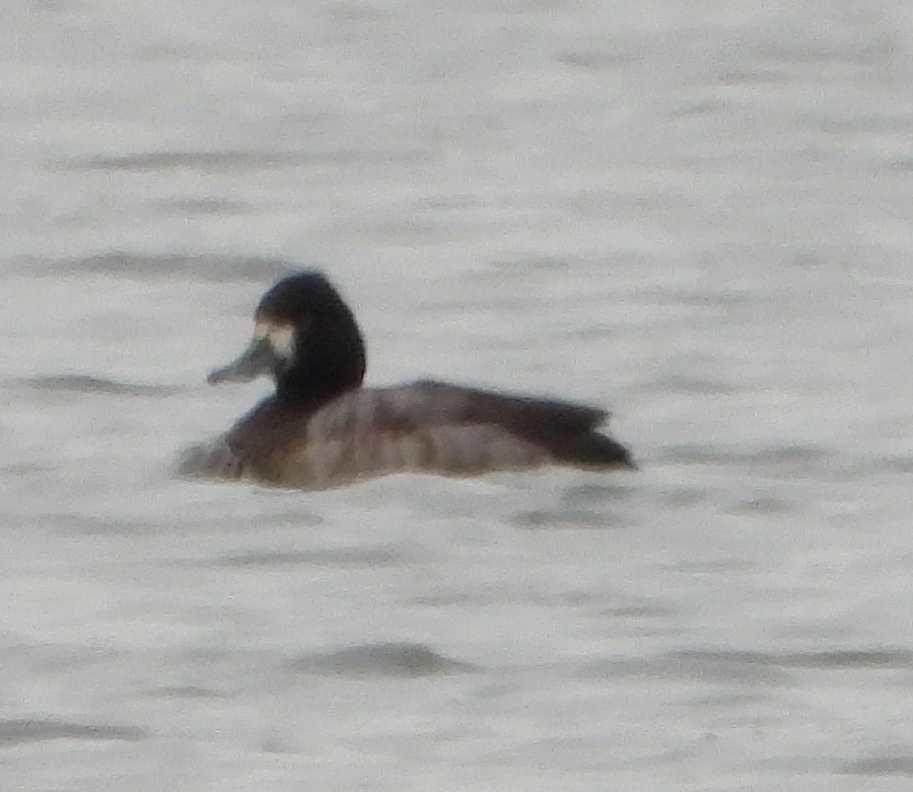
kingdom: Animalia
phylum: Chordata
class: Aves
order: Anseriformes
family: Anatidae
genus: Aythya
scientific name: Aythya affinis
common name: Lesser scaup
